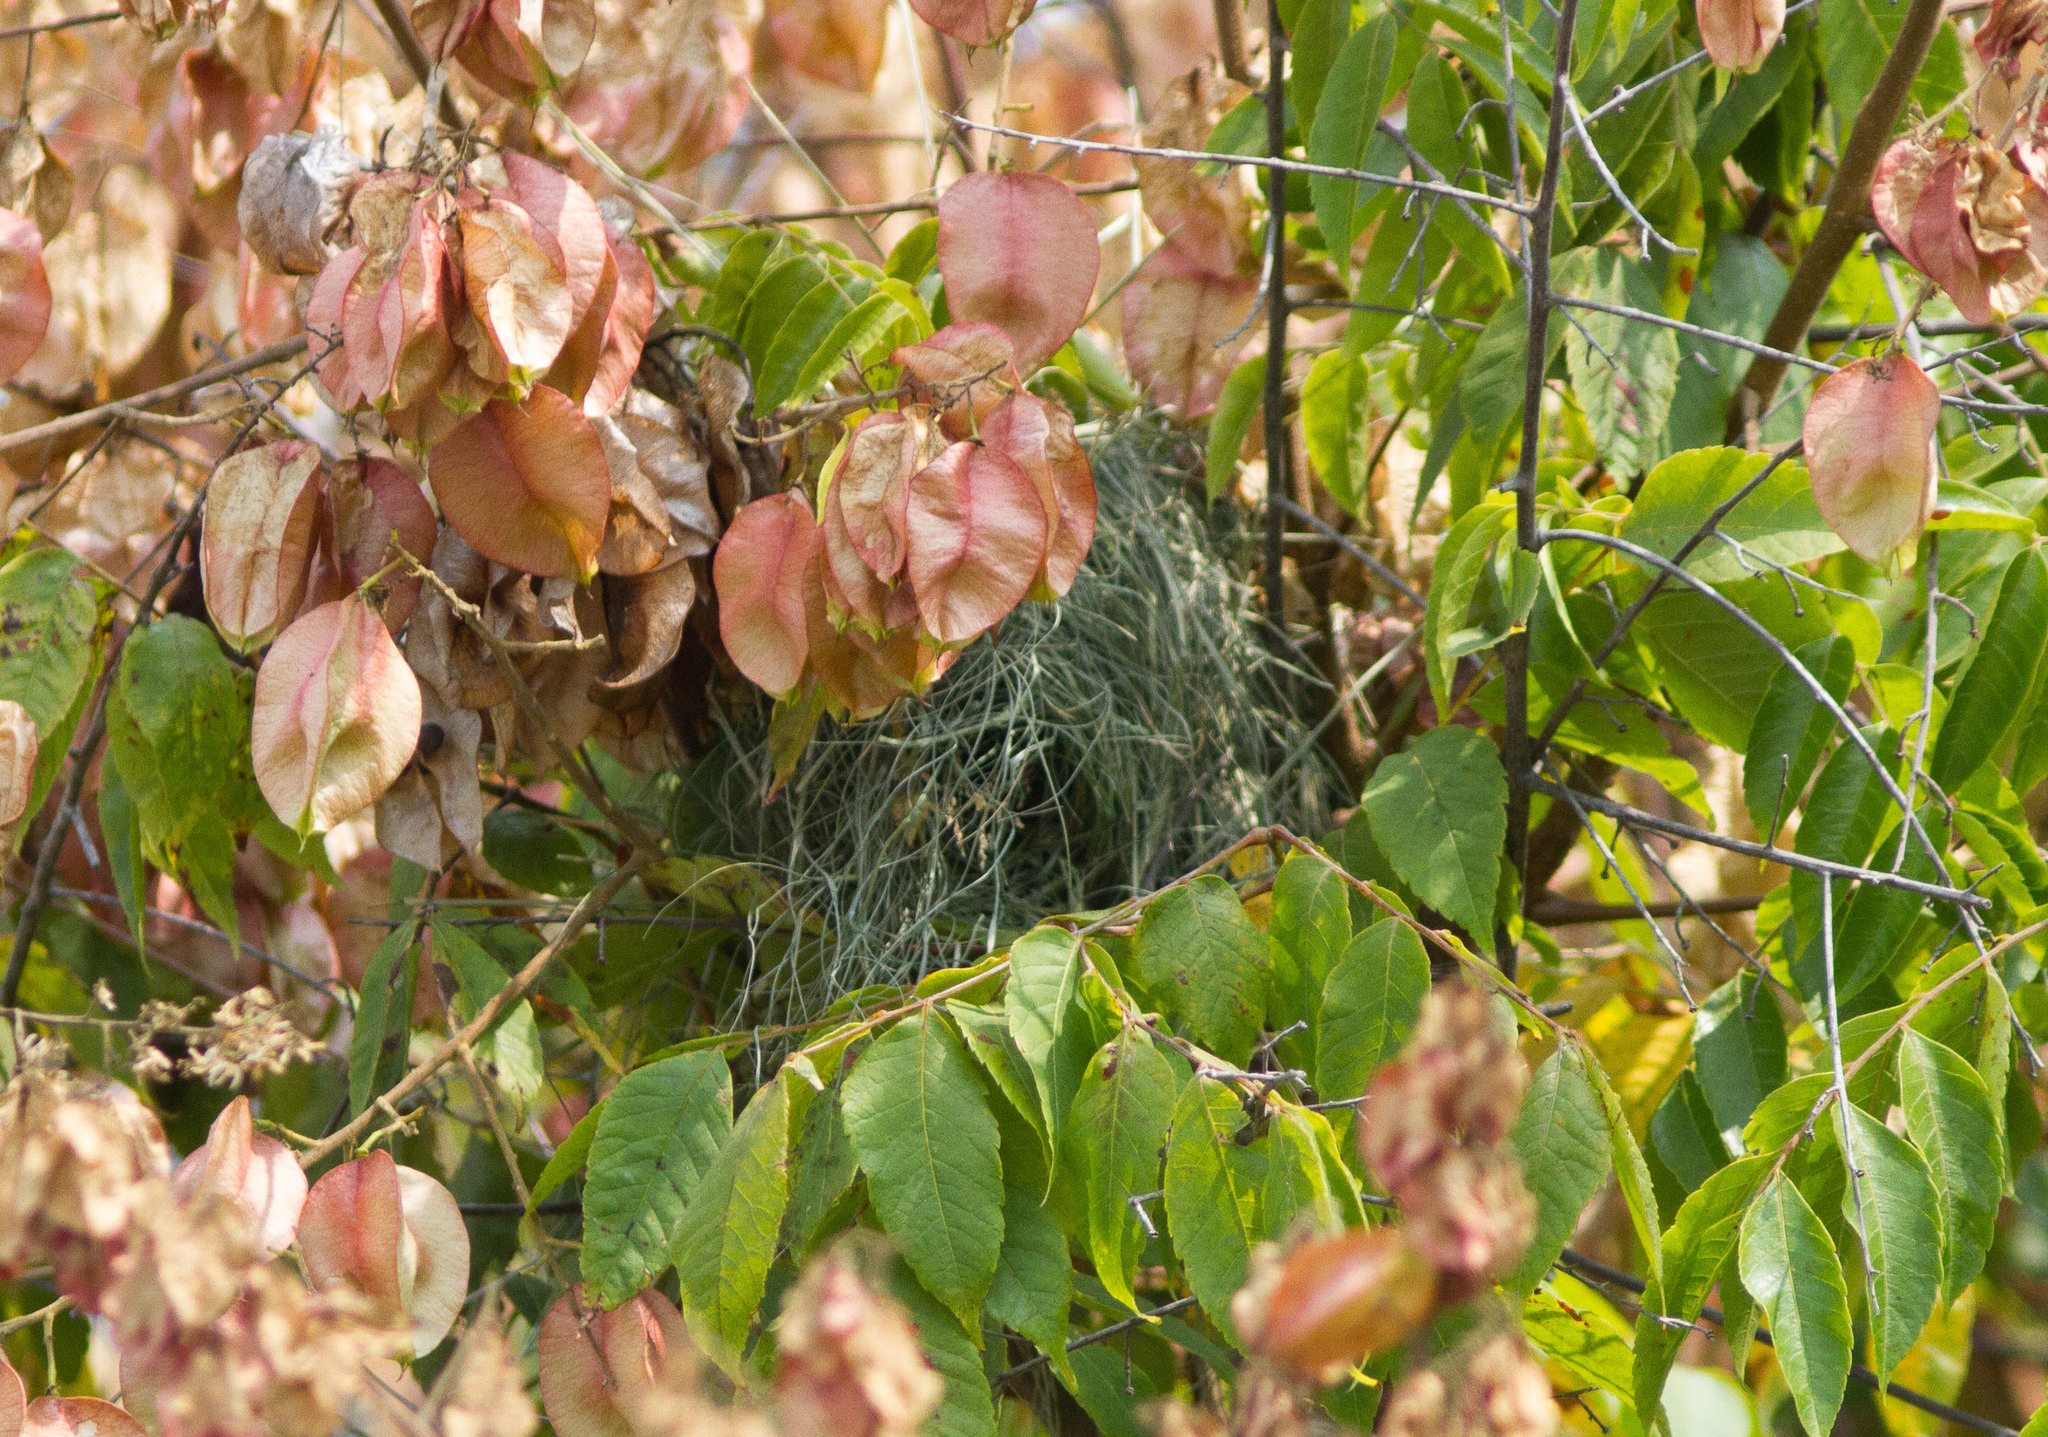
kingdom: Animalia
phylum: Chordata
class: Aves
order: Passeriformes
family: Estrildidae
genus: Lonchura
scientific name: Lonchura punctulata
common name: Scaly-breasted munia
